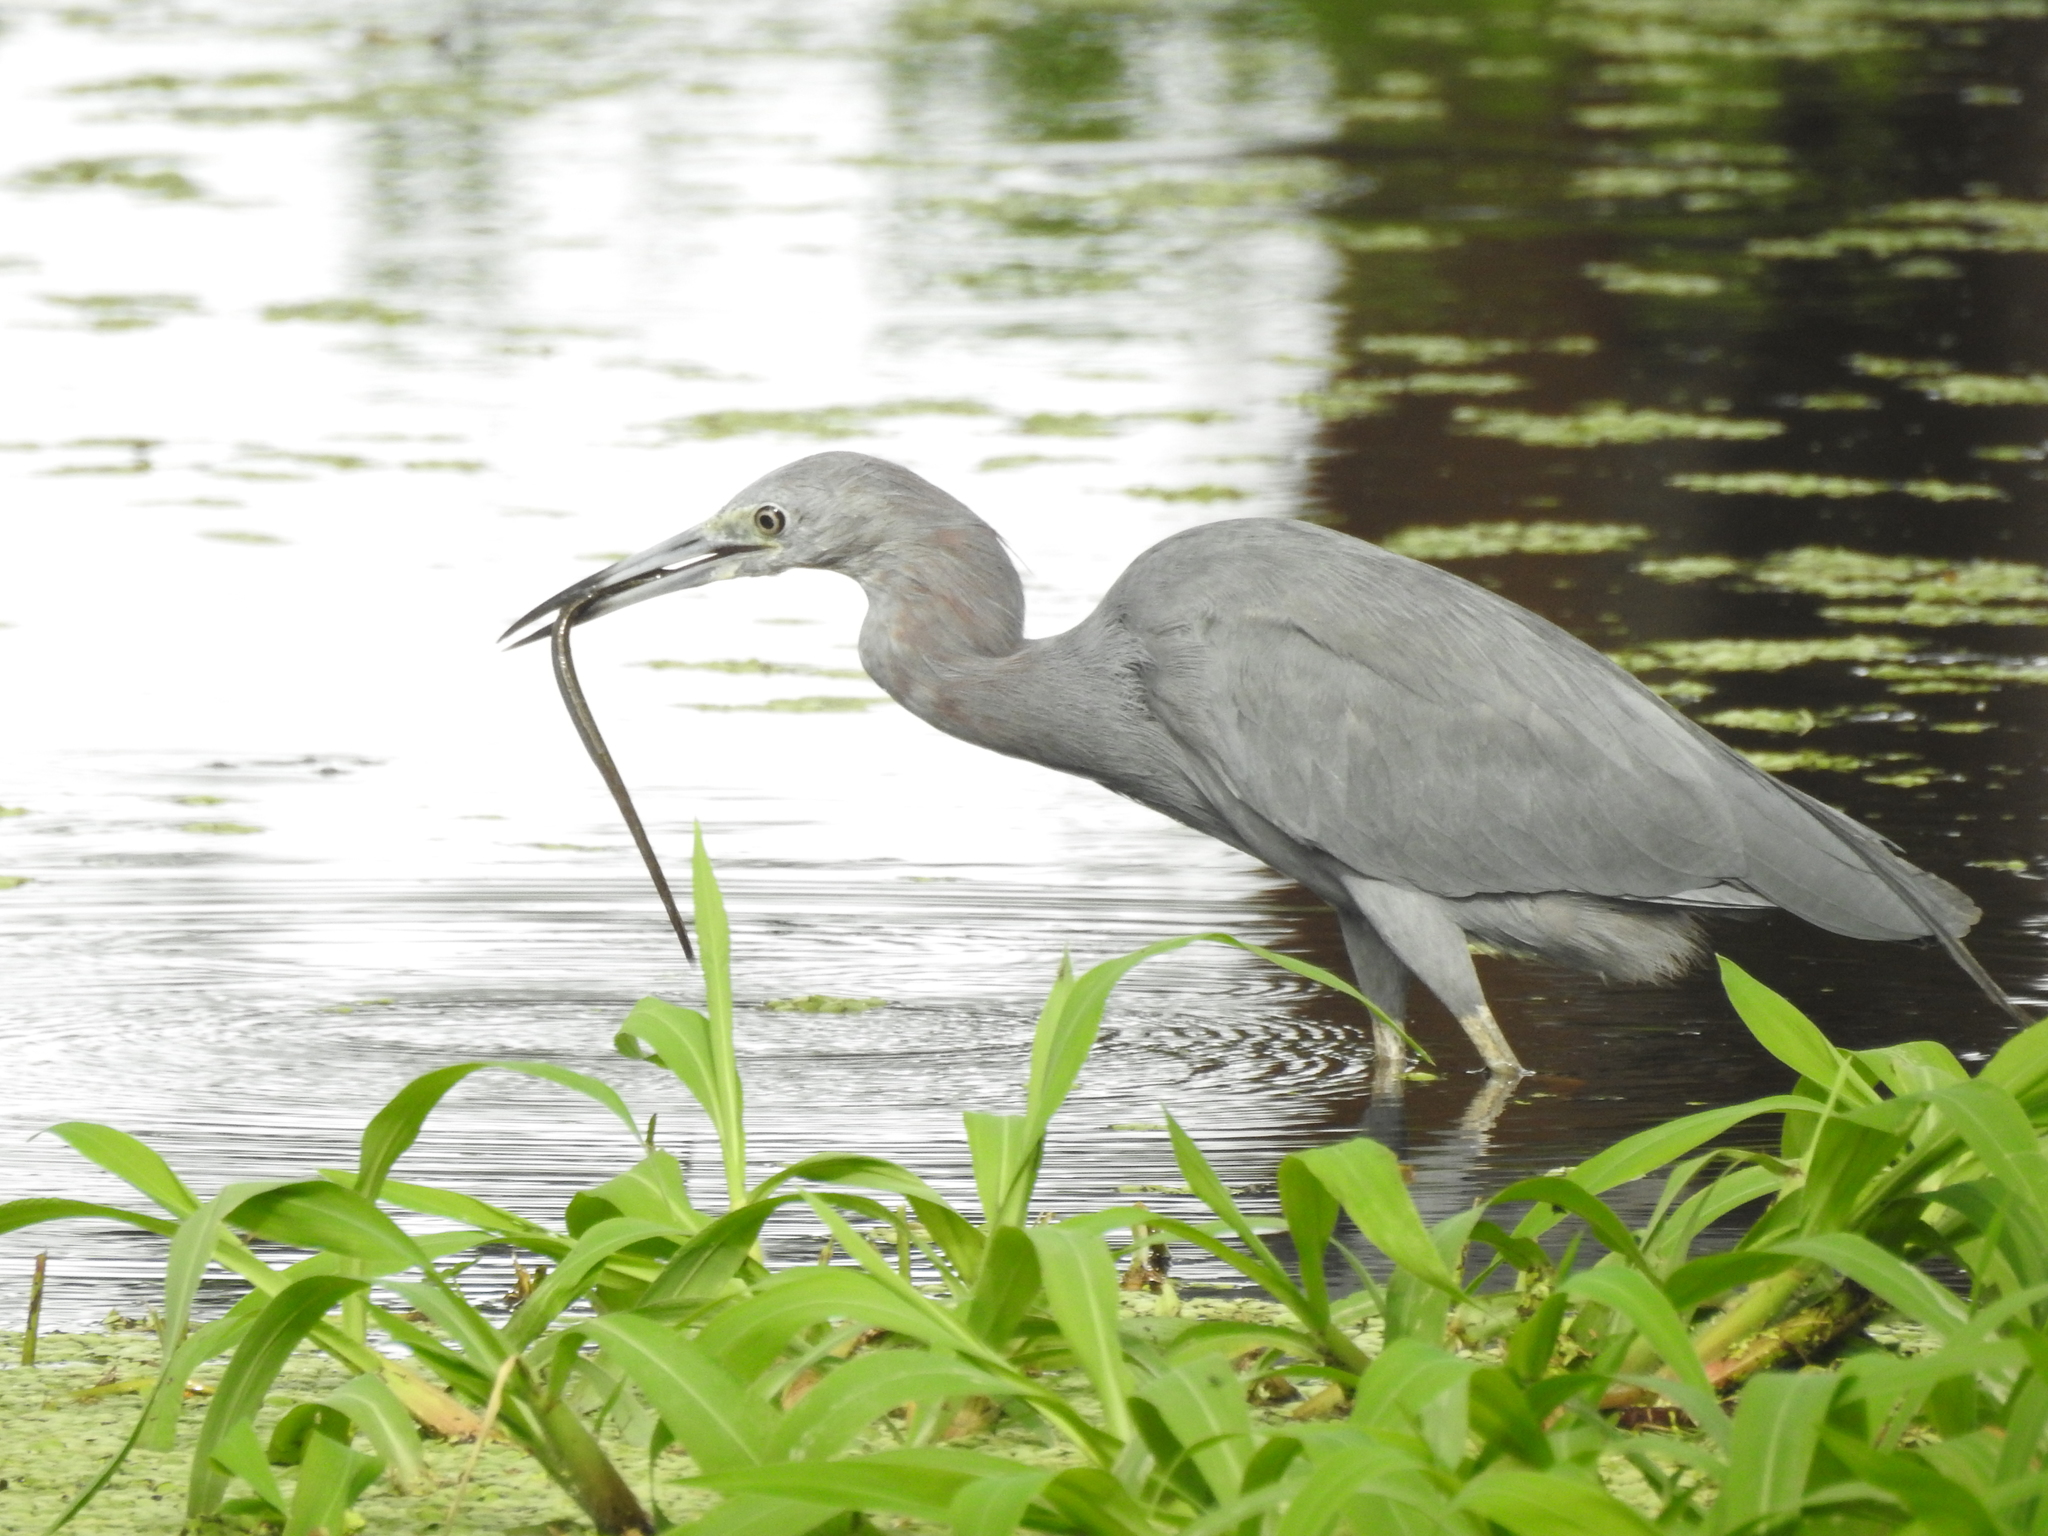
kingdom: Animalia
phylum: Chordata
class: Aves
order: Pelecaniformes
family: Ardeidae
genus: Egretta
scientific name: Egretta caerulea
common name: Little blue heron
